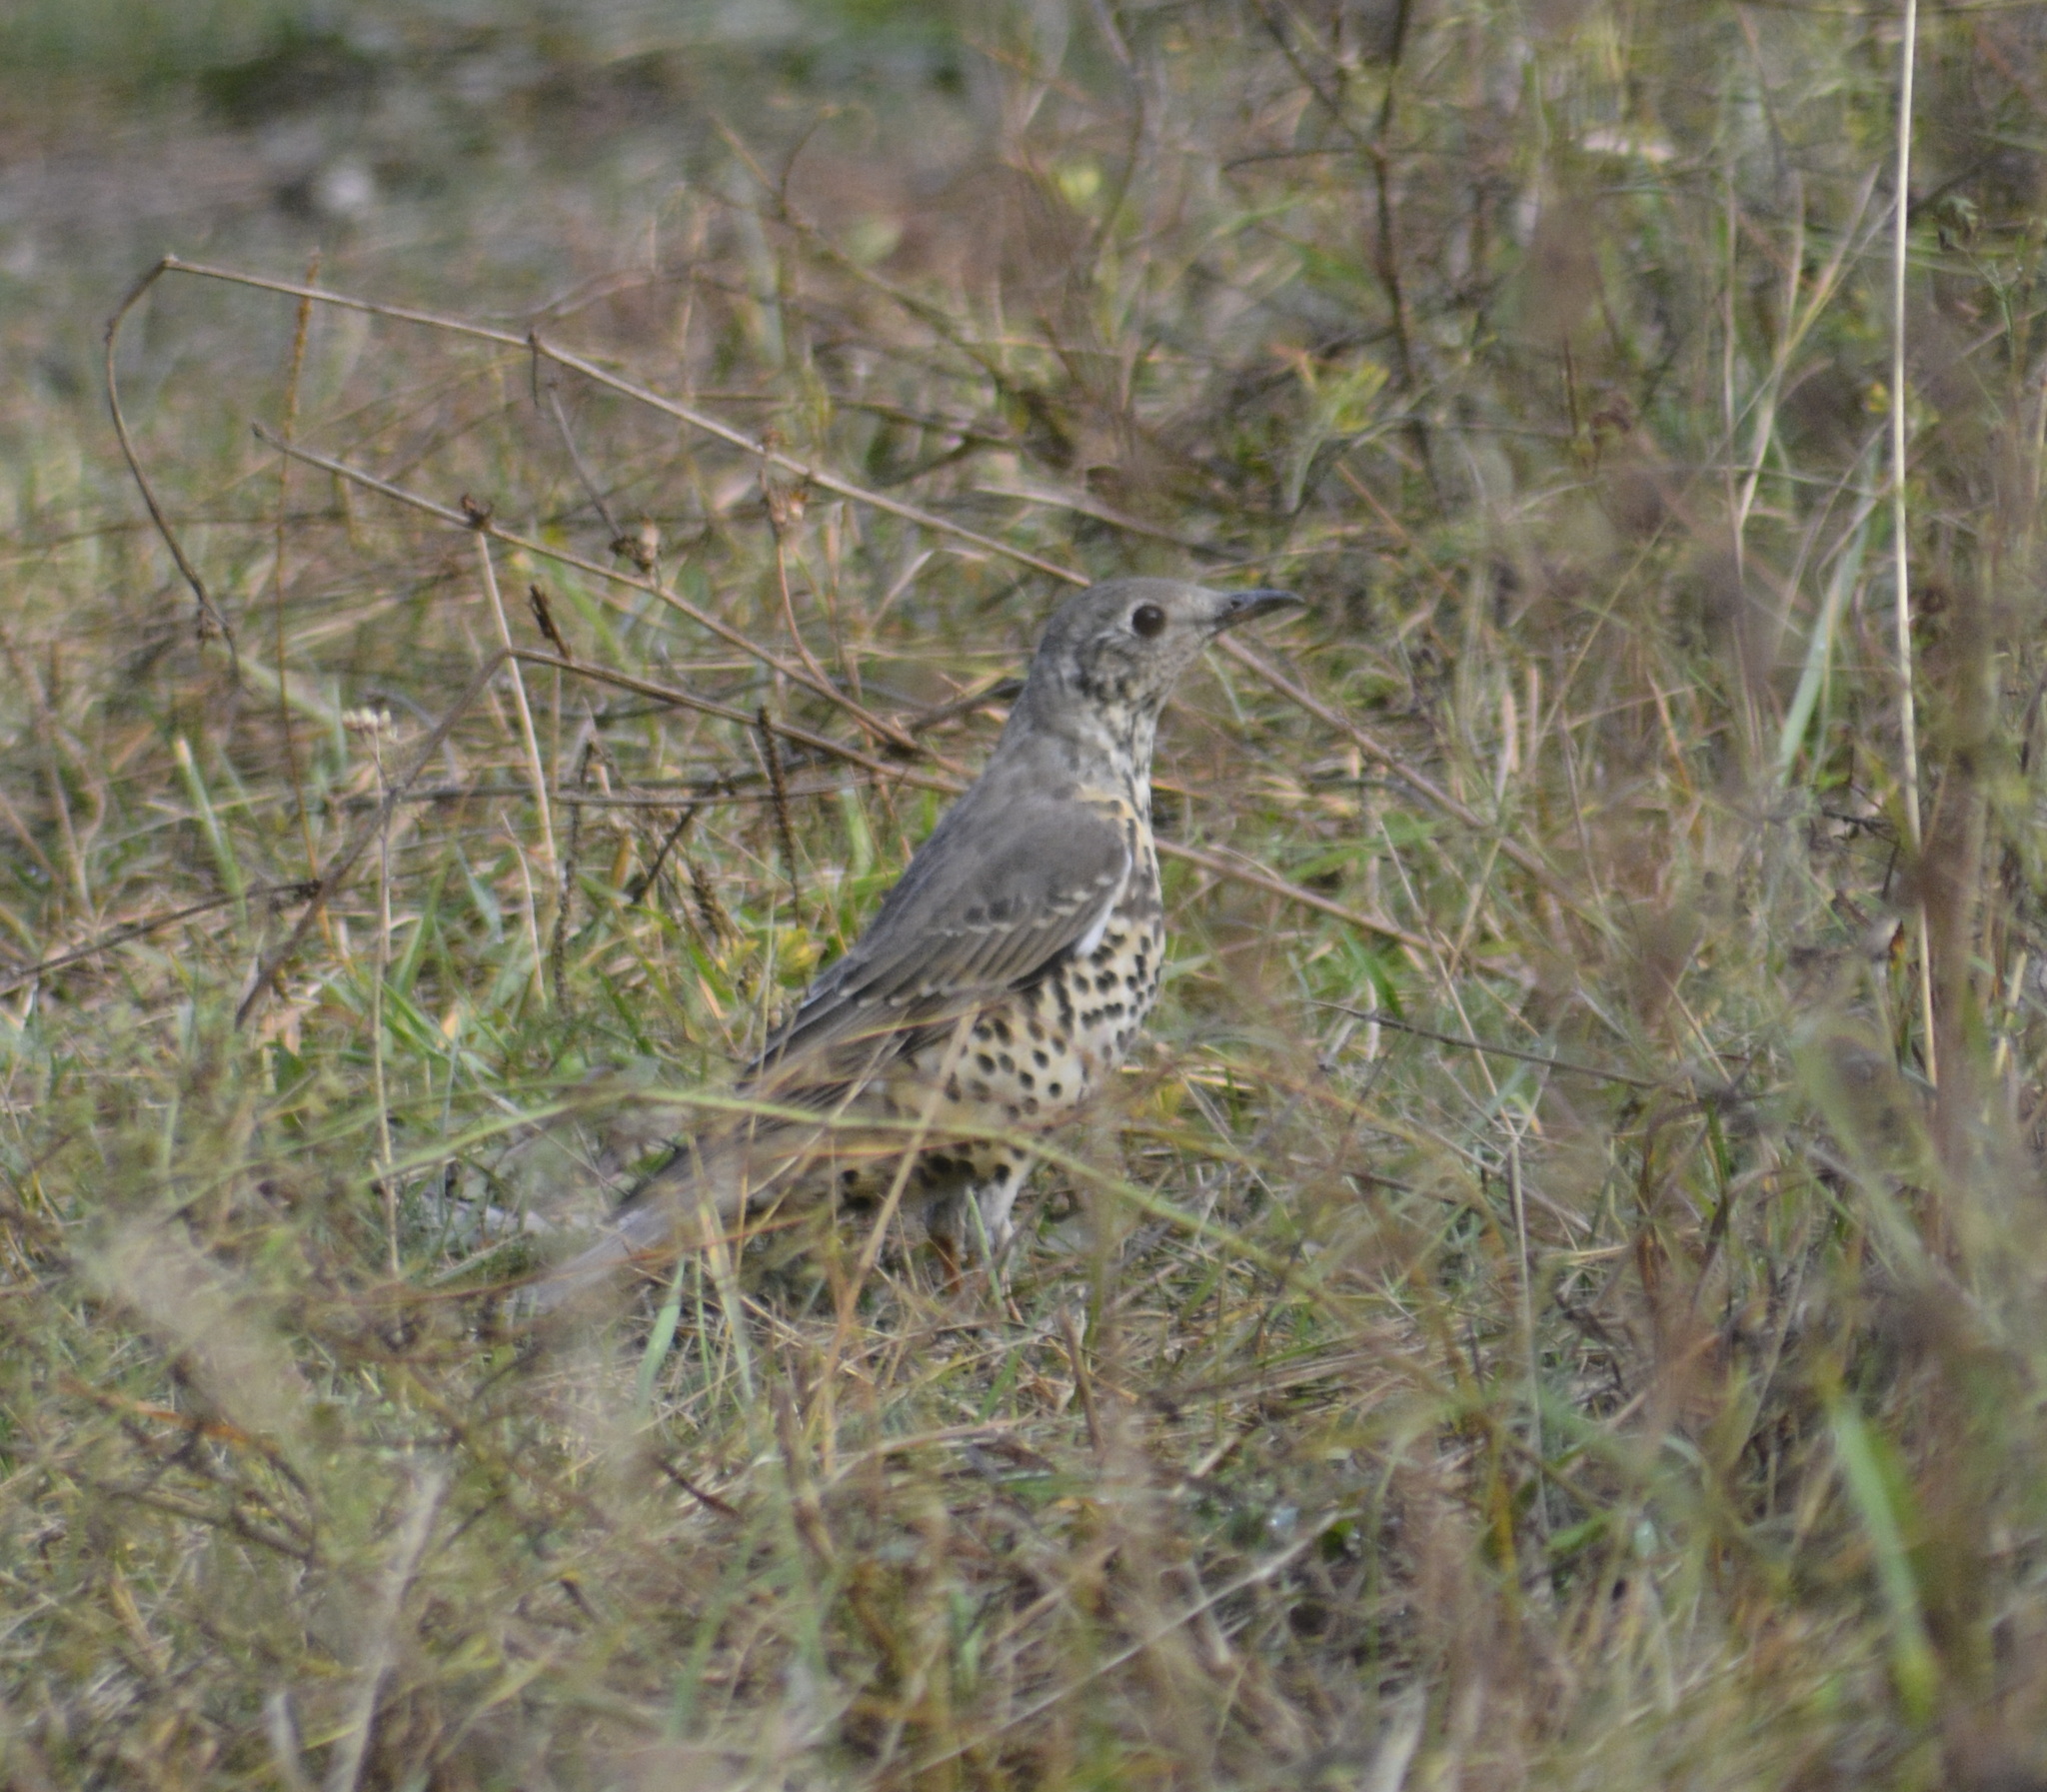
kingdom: Animalia
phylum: Chordata
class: Aves
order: Passeriformes
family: Turdidae
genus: Turdus
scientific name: Turdus viscivorus
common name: Mistle thrush
